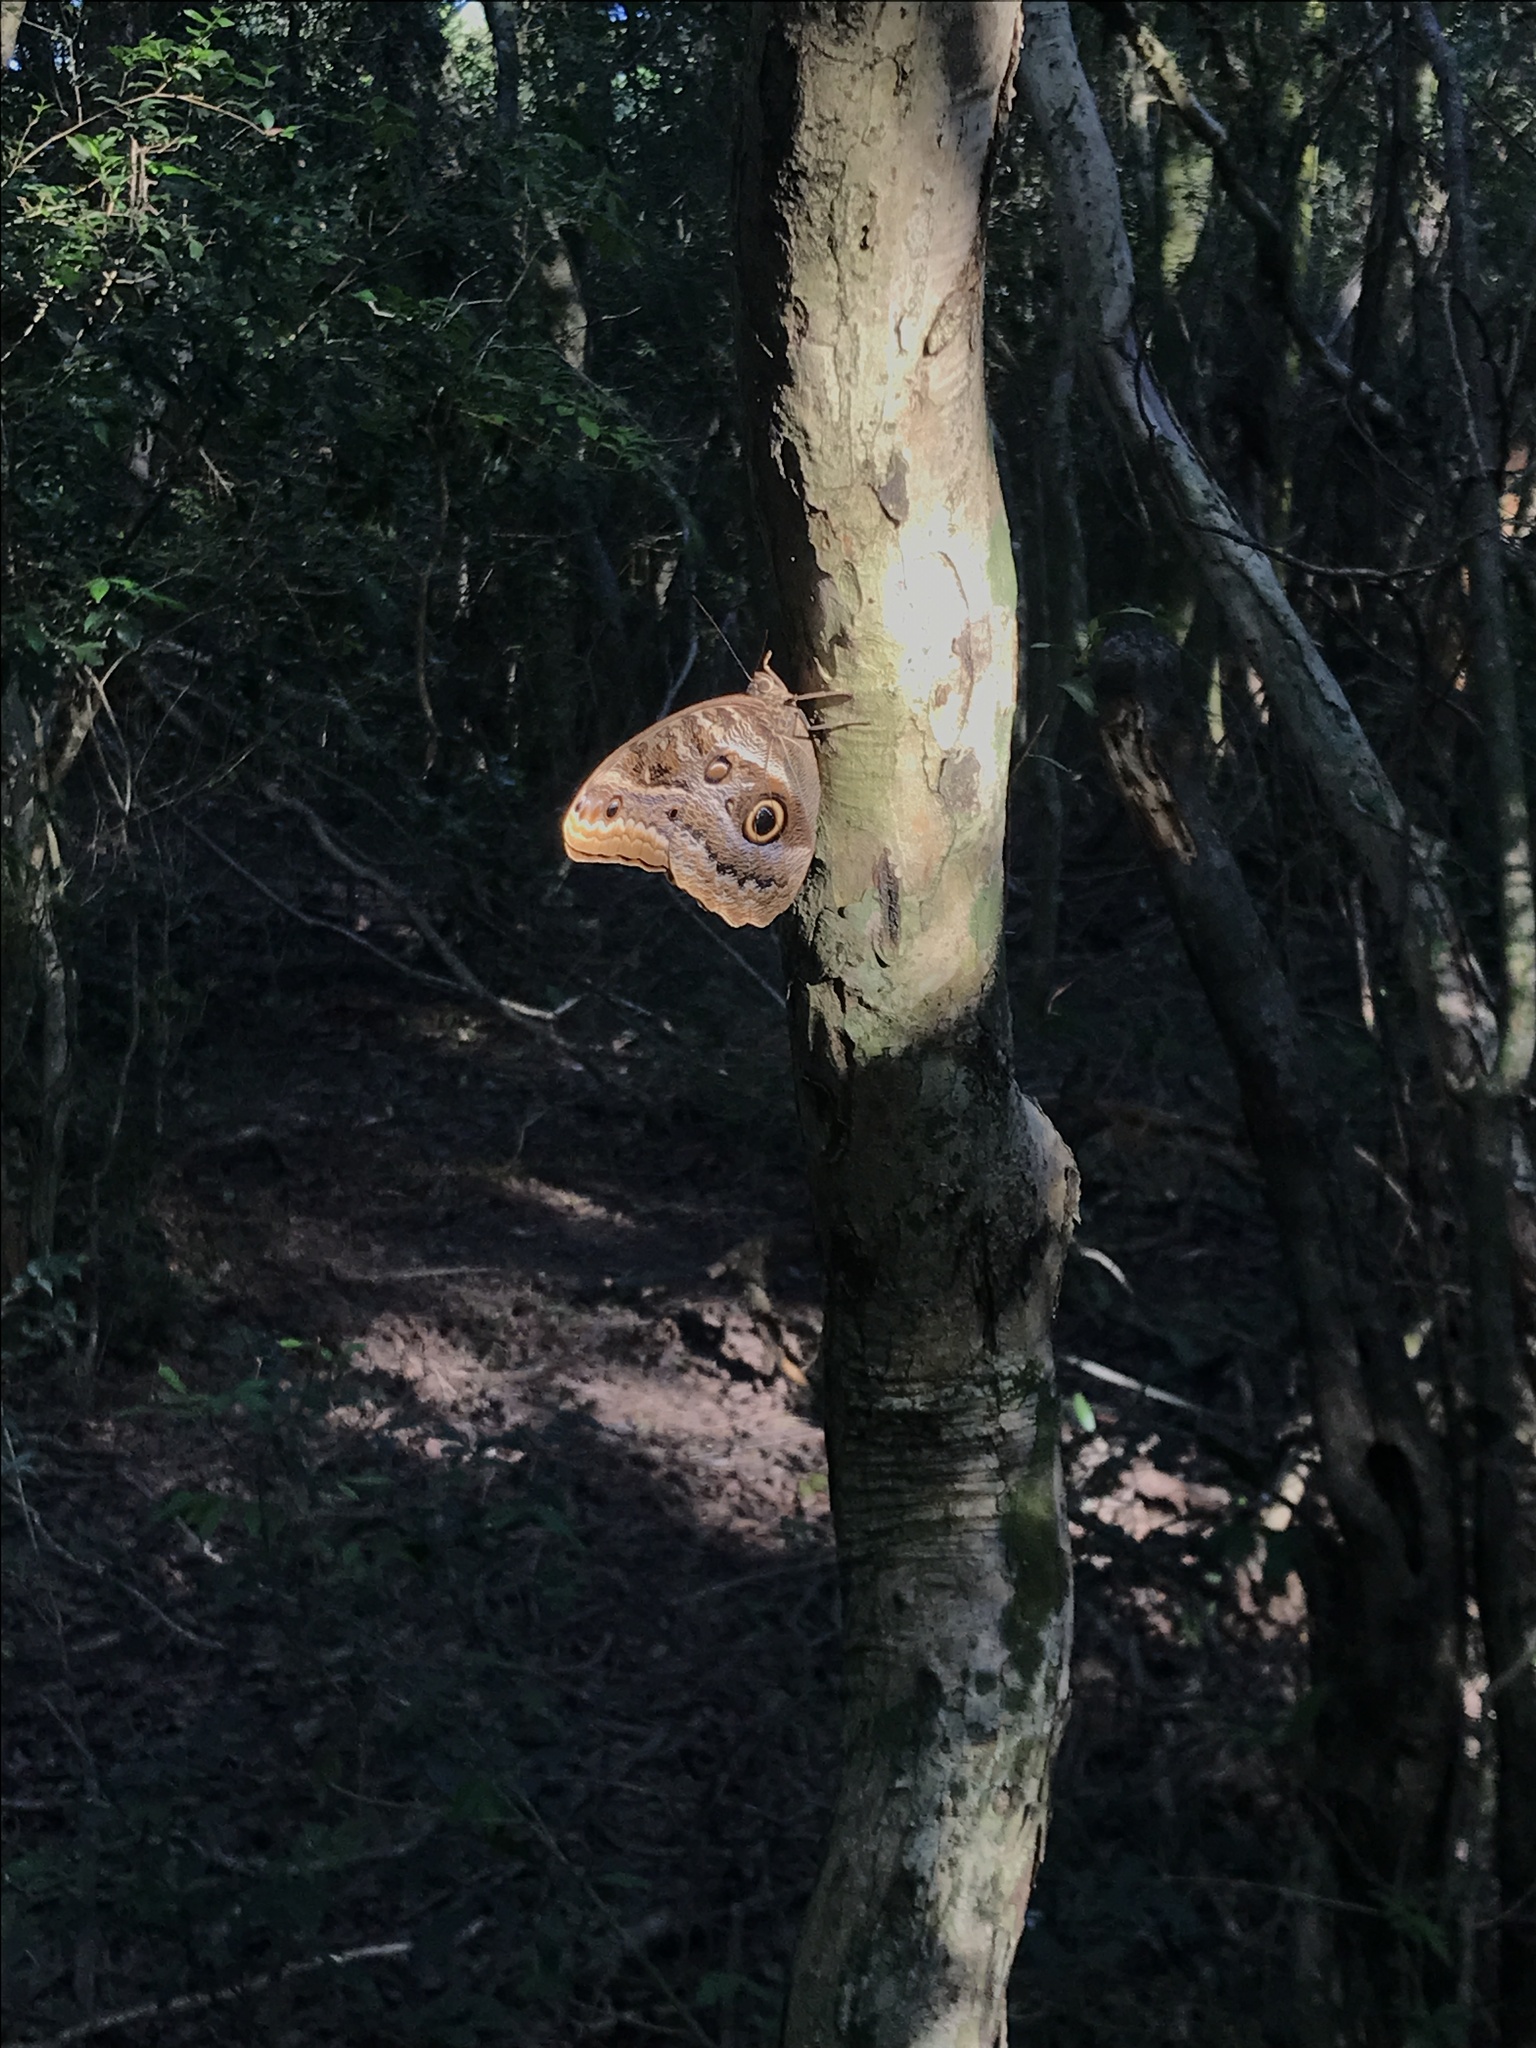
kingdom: Animalia
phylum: Arthropoda
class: Insecta
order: Lepidoptera
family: Nymphalidae
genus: Caligo
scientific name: Caligo illioneus
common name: Dusky owl-butterfly
